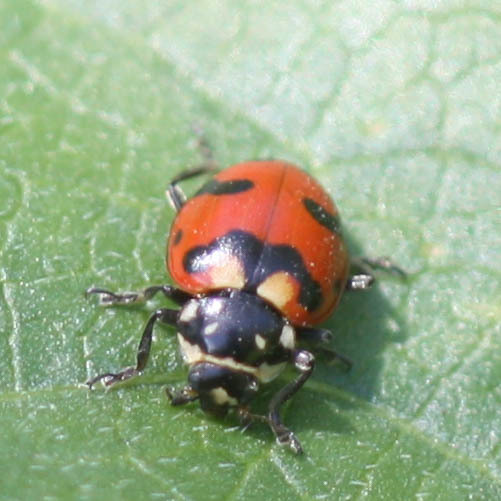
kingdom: Animalia
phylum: Arthropoda
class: Insecta
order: Coleoptera
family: Coccinellidae
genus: Hippodamia
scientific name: Hippodamia caseyi
